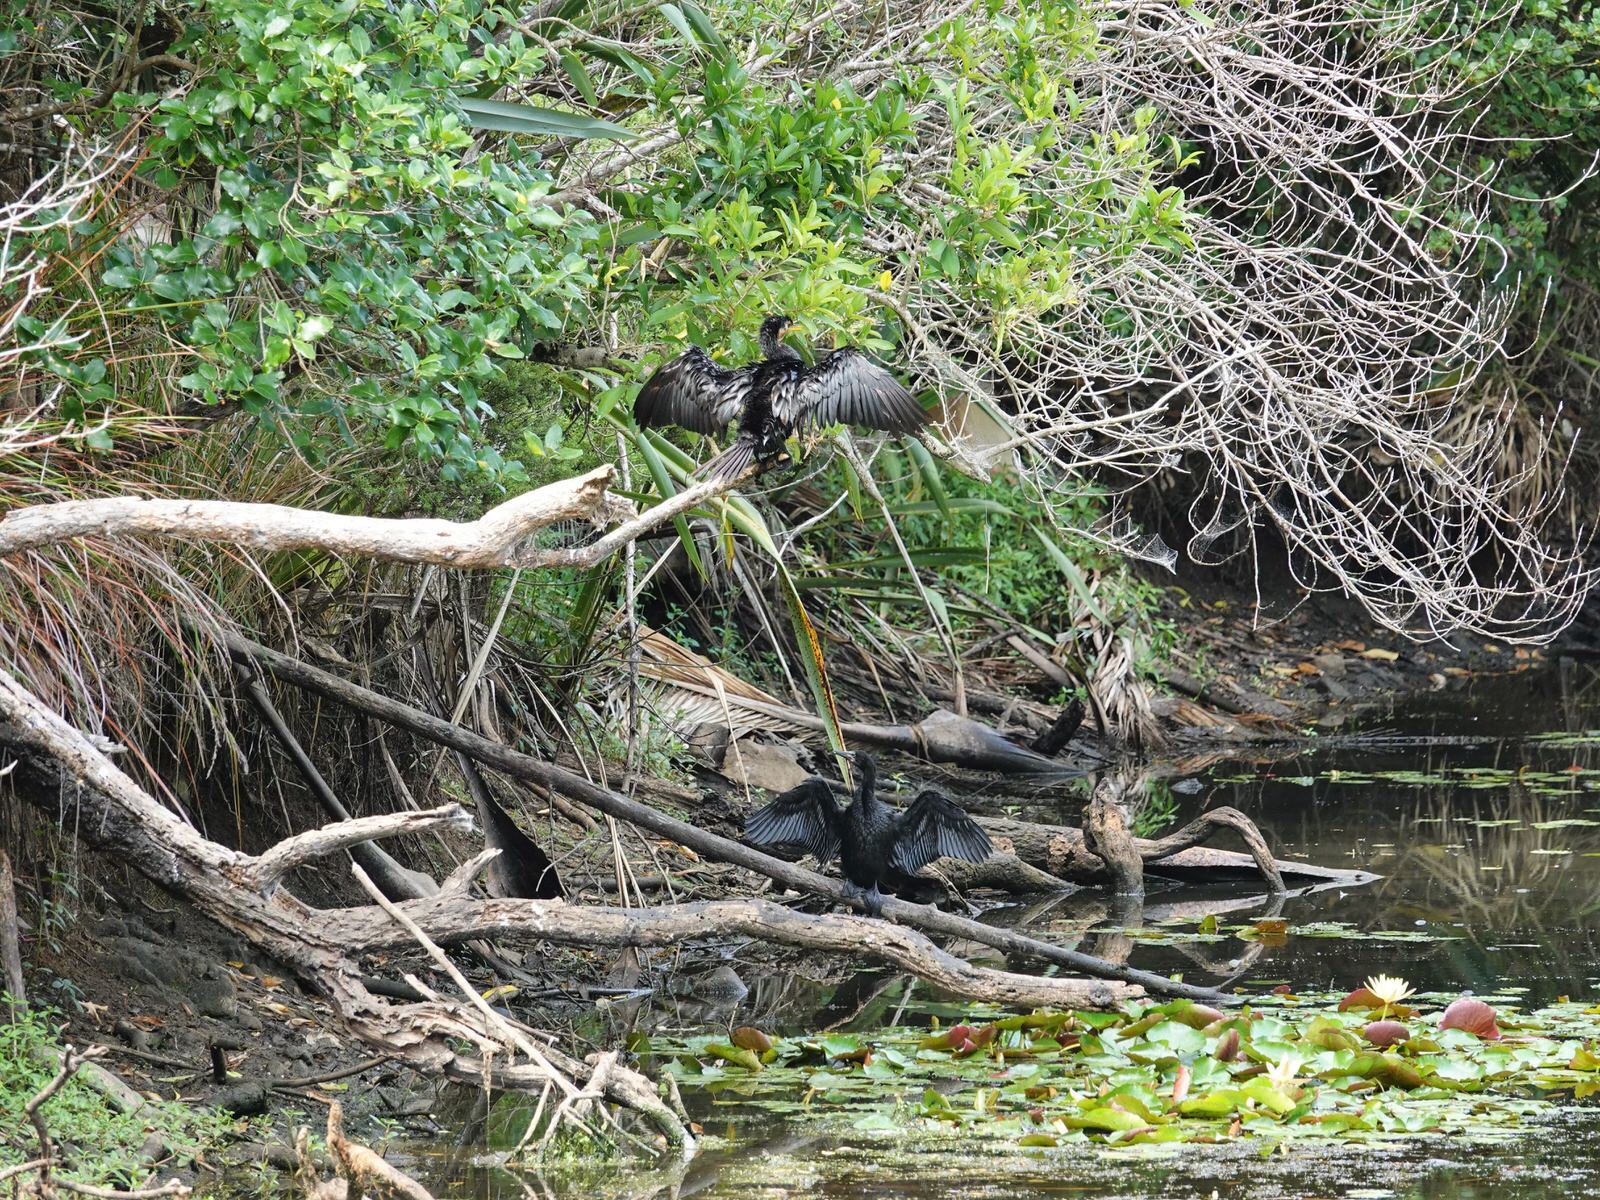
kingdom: Animalia
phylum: Chordata
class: Aves
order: Suliformes
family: Phalacrocoracidae
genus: Microcarbo
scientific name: Microcarbo melanoleucos
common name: Little pied cormorant
